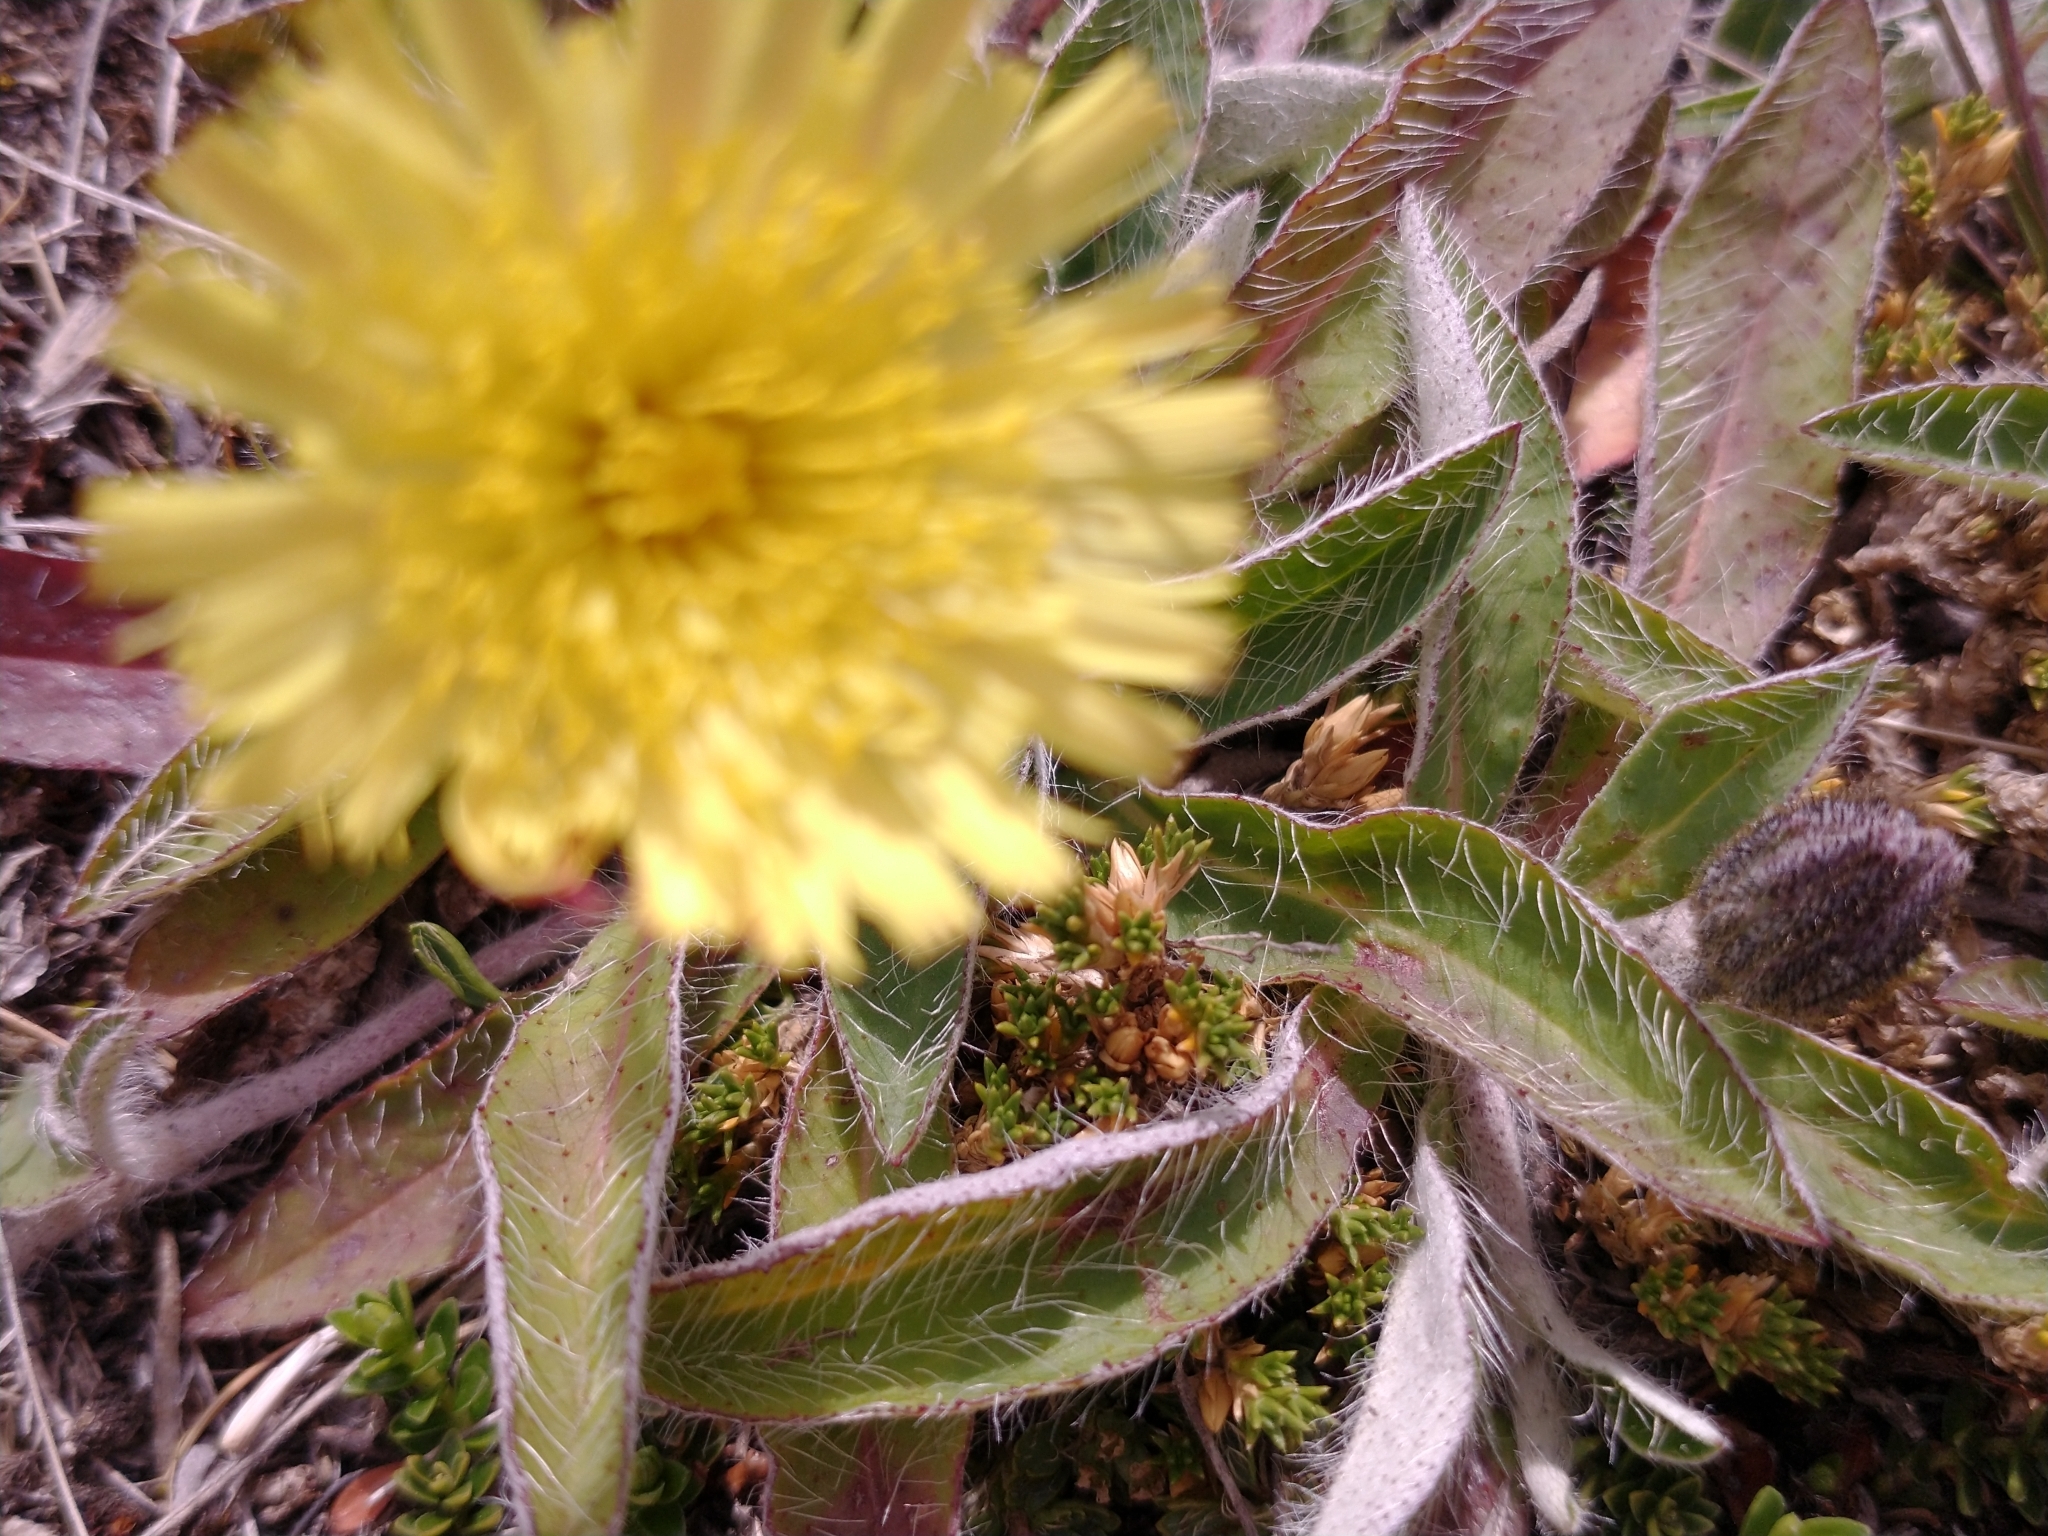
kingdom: Plantae
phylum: Tracheophyta
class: Magnoliopsida
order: Asterales
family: Asteraceae
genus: Pilosella
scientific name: Pilosella officinarum
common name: Mouse-ear hawkweed
